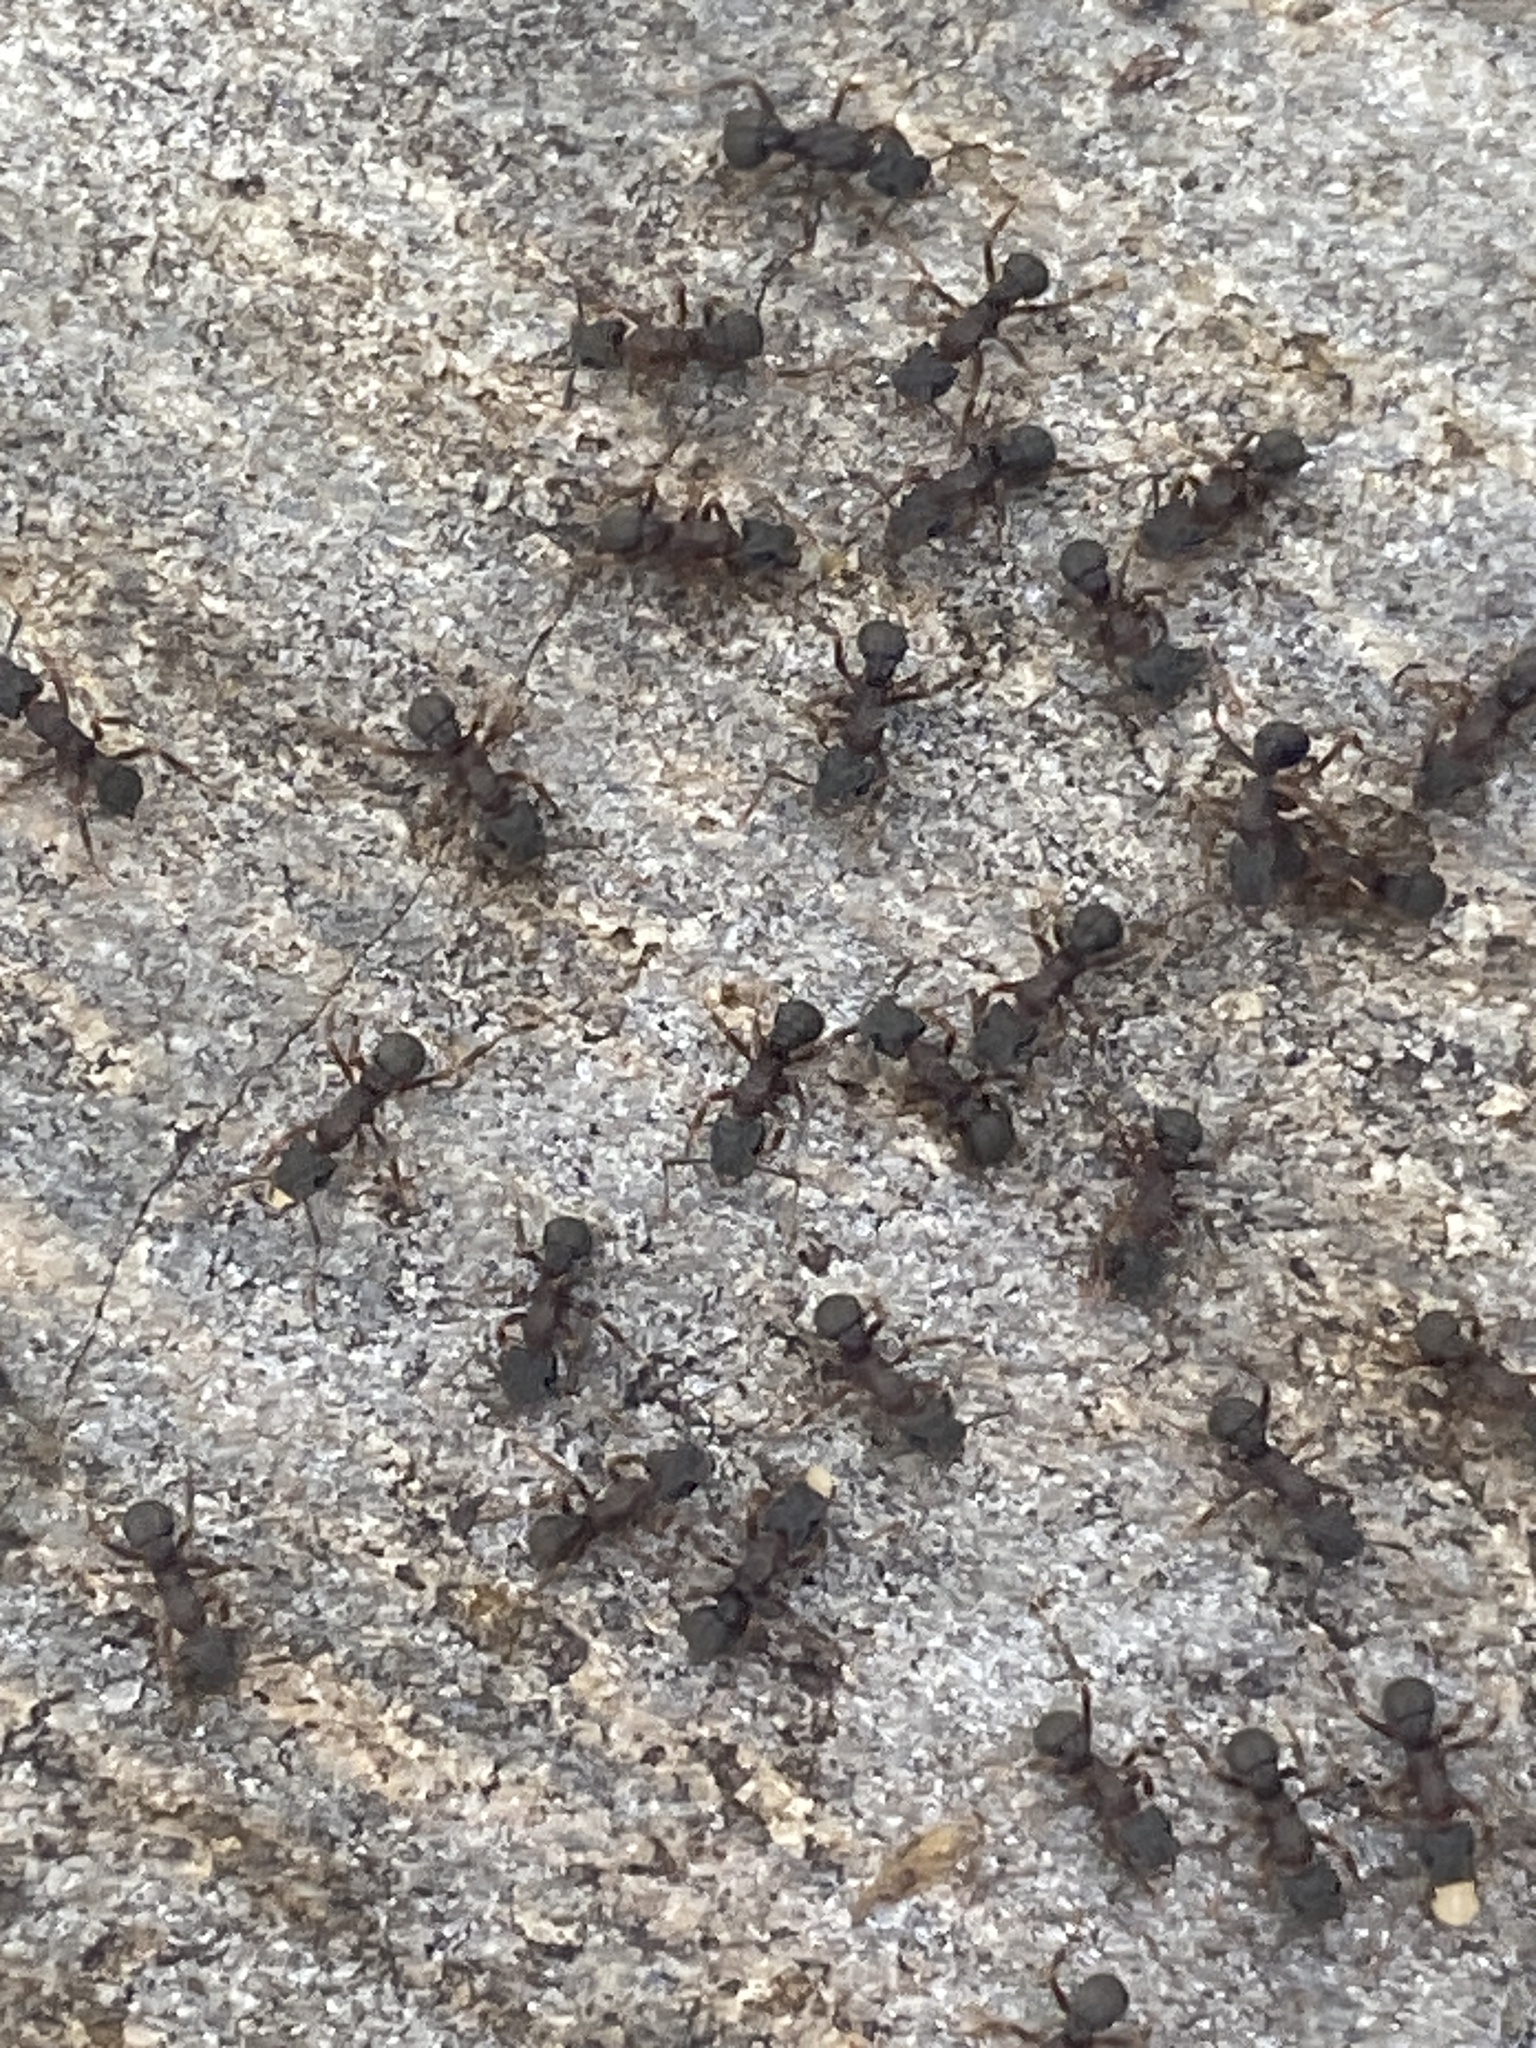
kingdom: Animalia
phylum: Arthropoda
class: Insecta
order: Hymenoptera
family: Formicidae
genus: Cyphomyrmex
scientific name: Cyphomyrmex rimosus
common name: Rimose fungus ant
